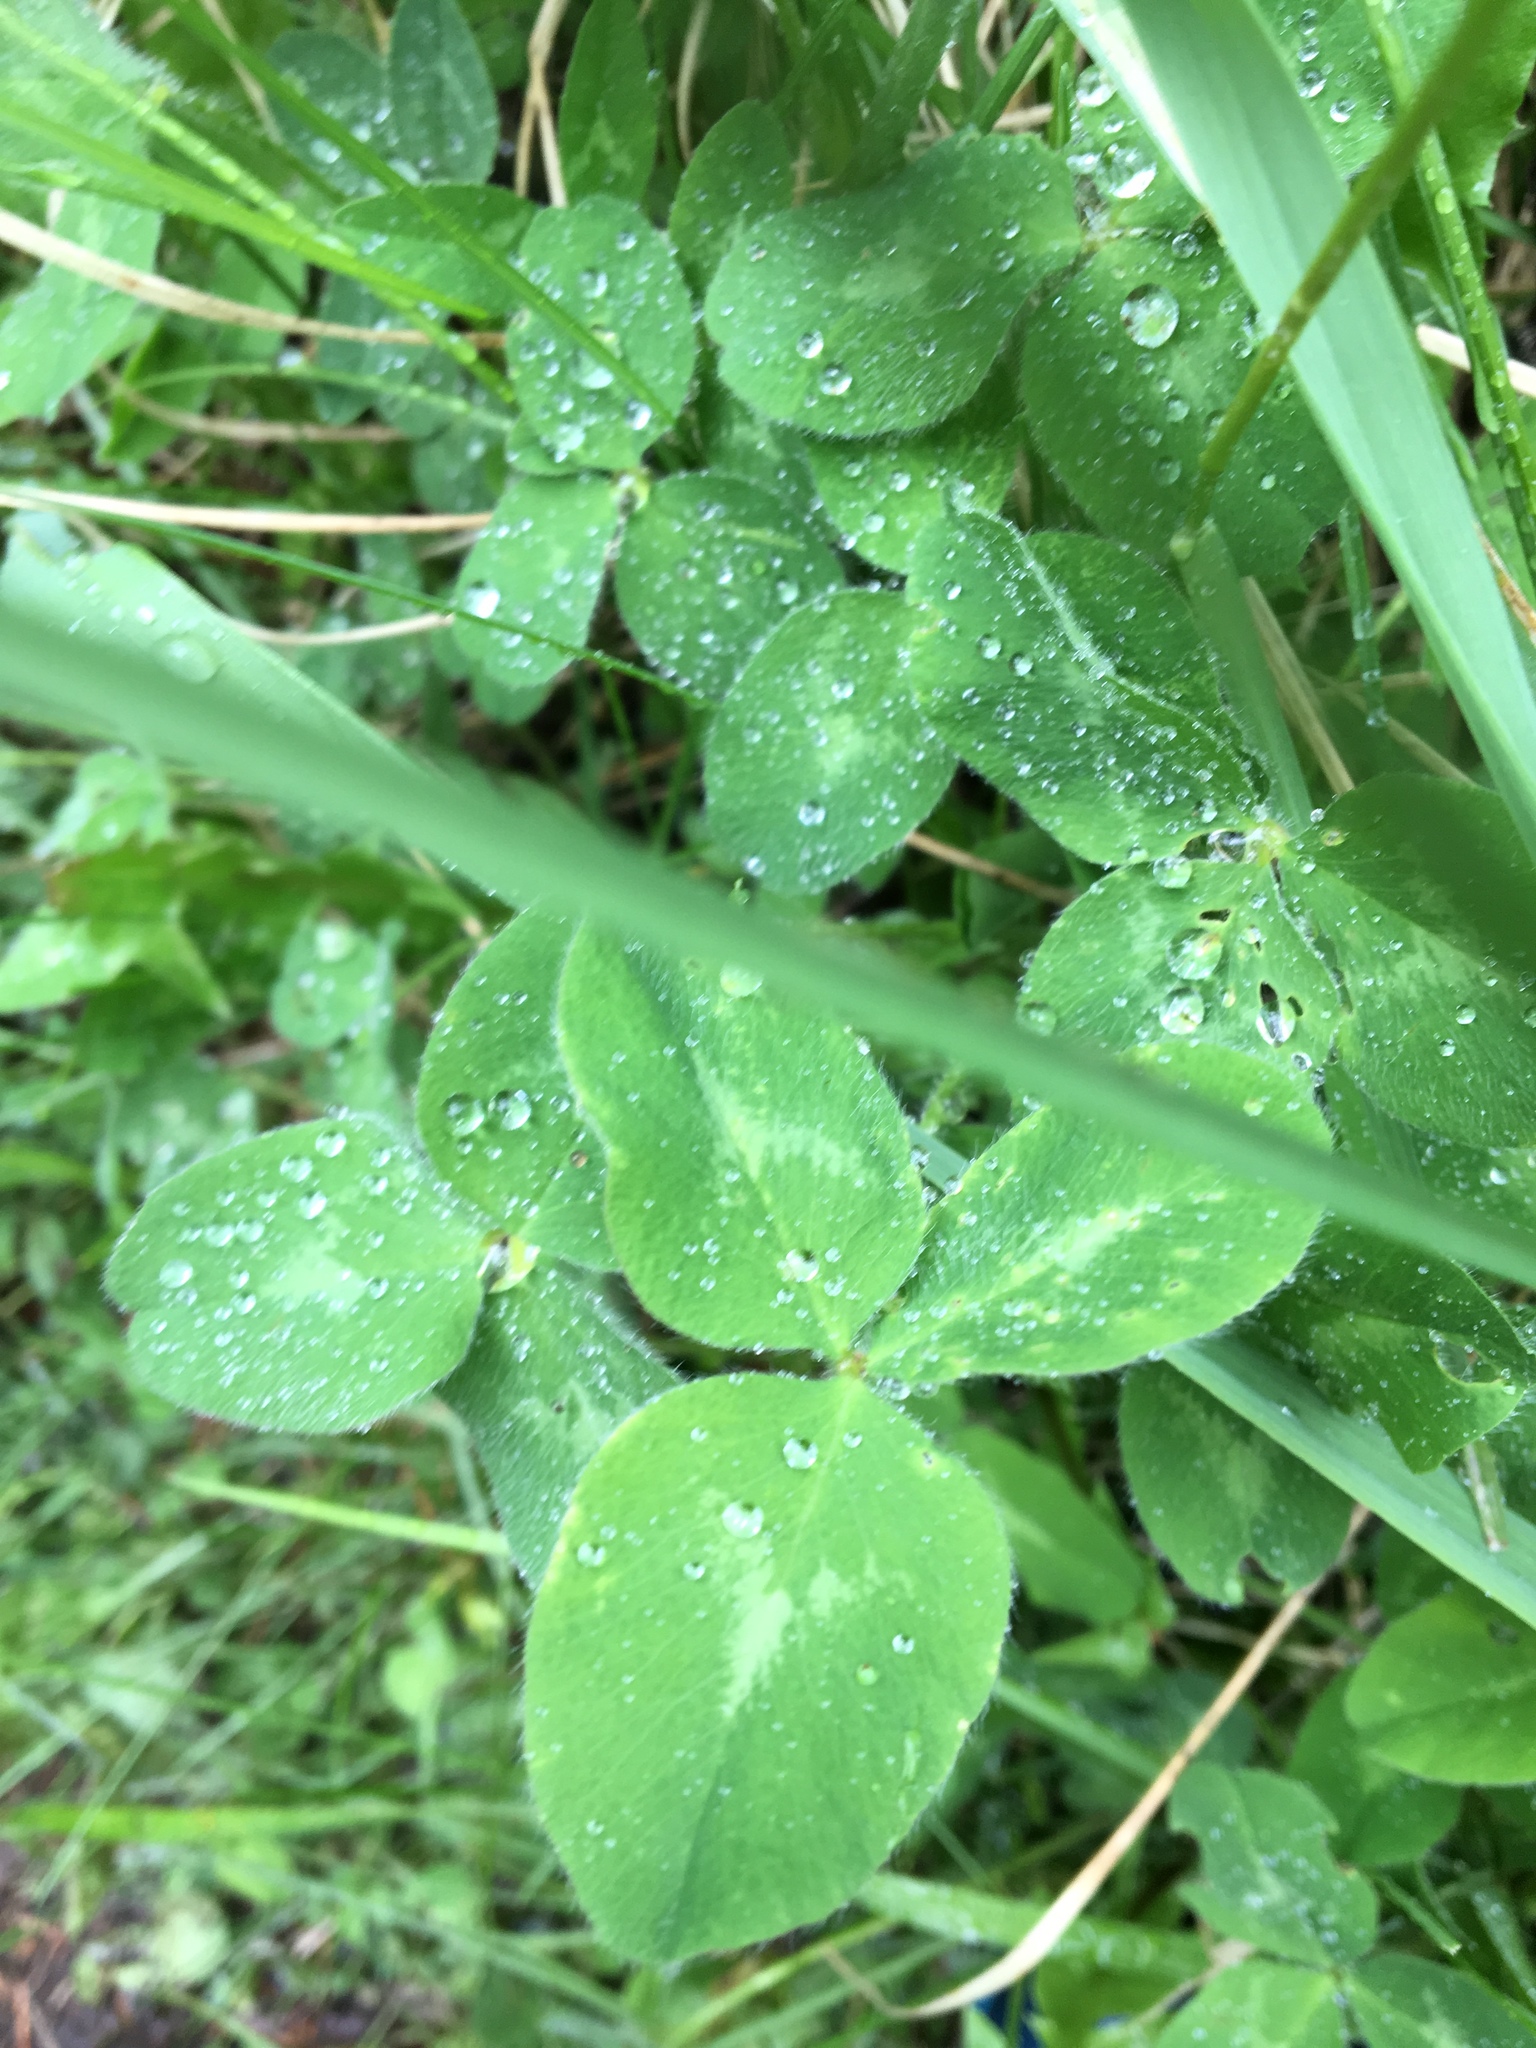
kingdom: Plantae
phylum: Tracheophyta
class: Magnoliopsida
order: Fabales
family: Fabaceae
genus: Trifolium
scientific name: Trifolium pratense
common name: Red clover
